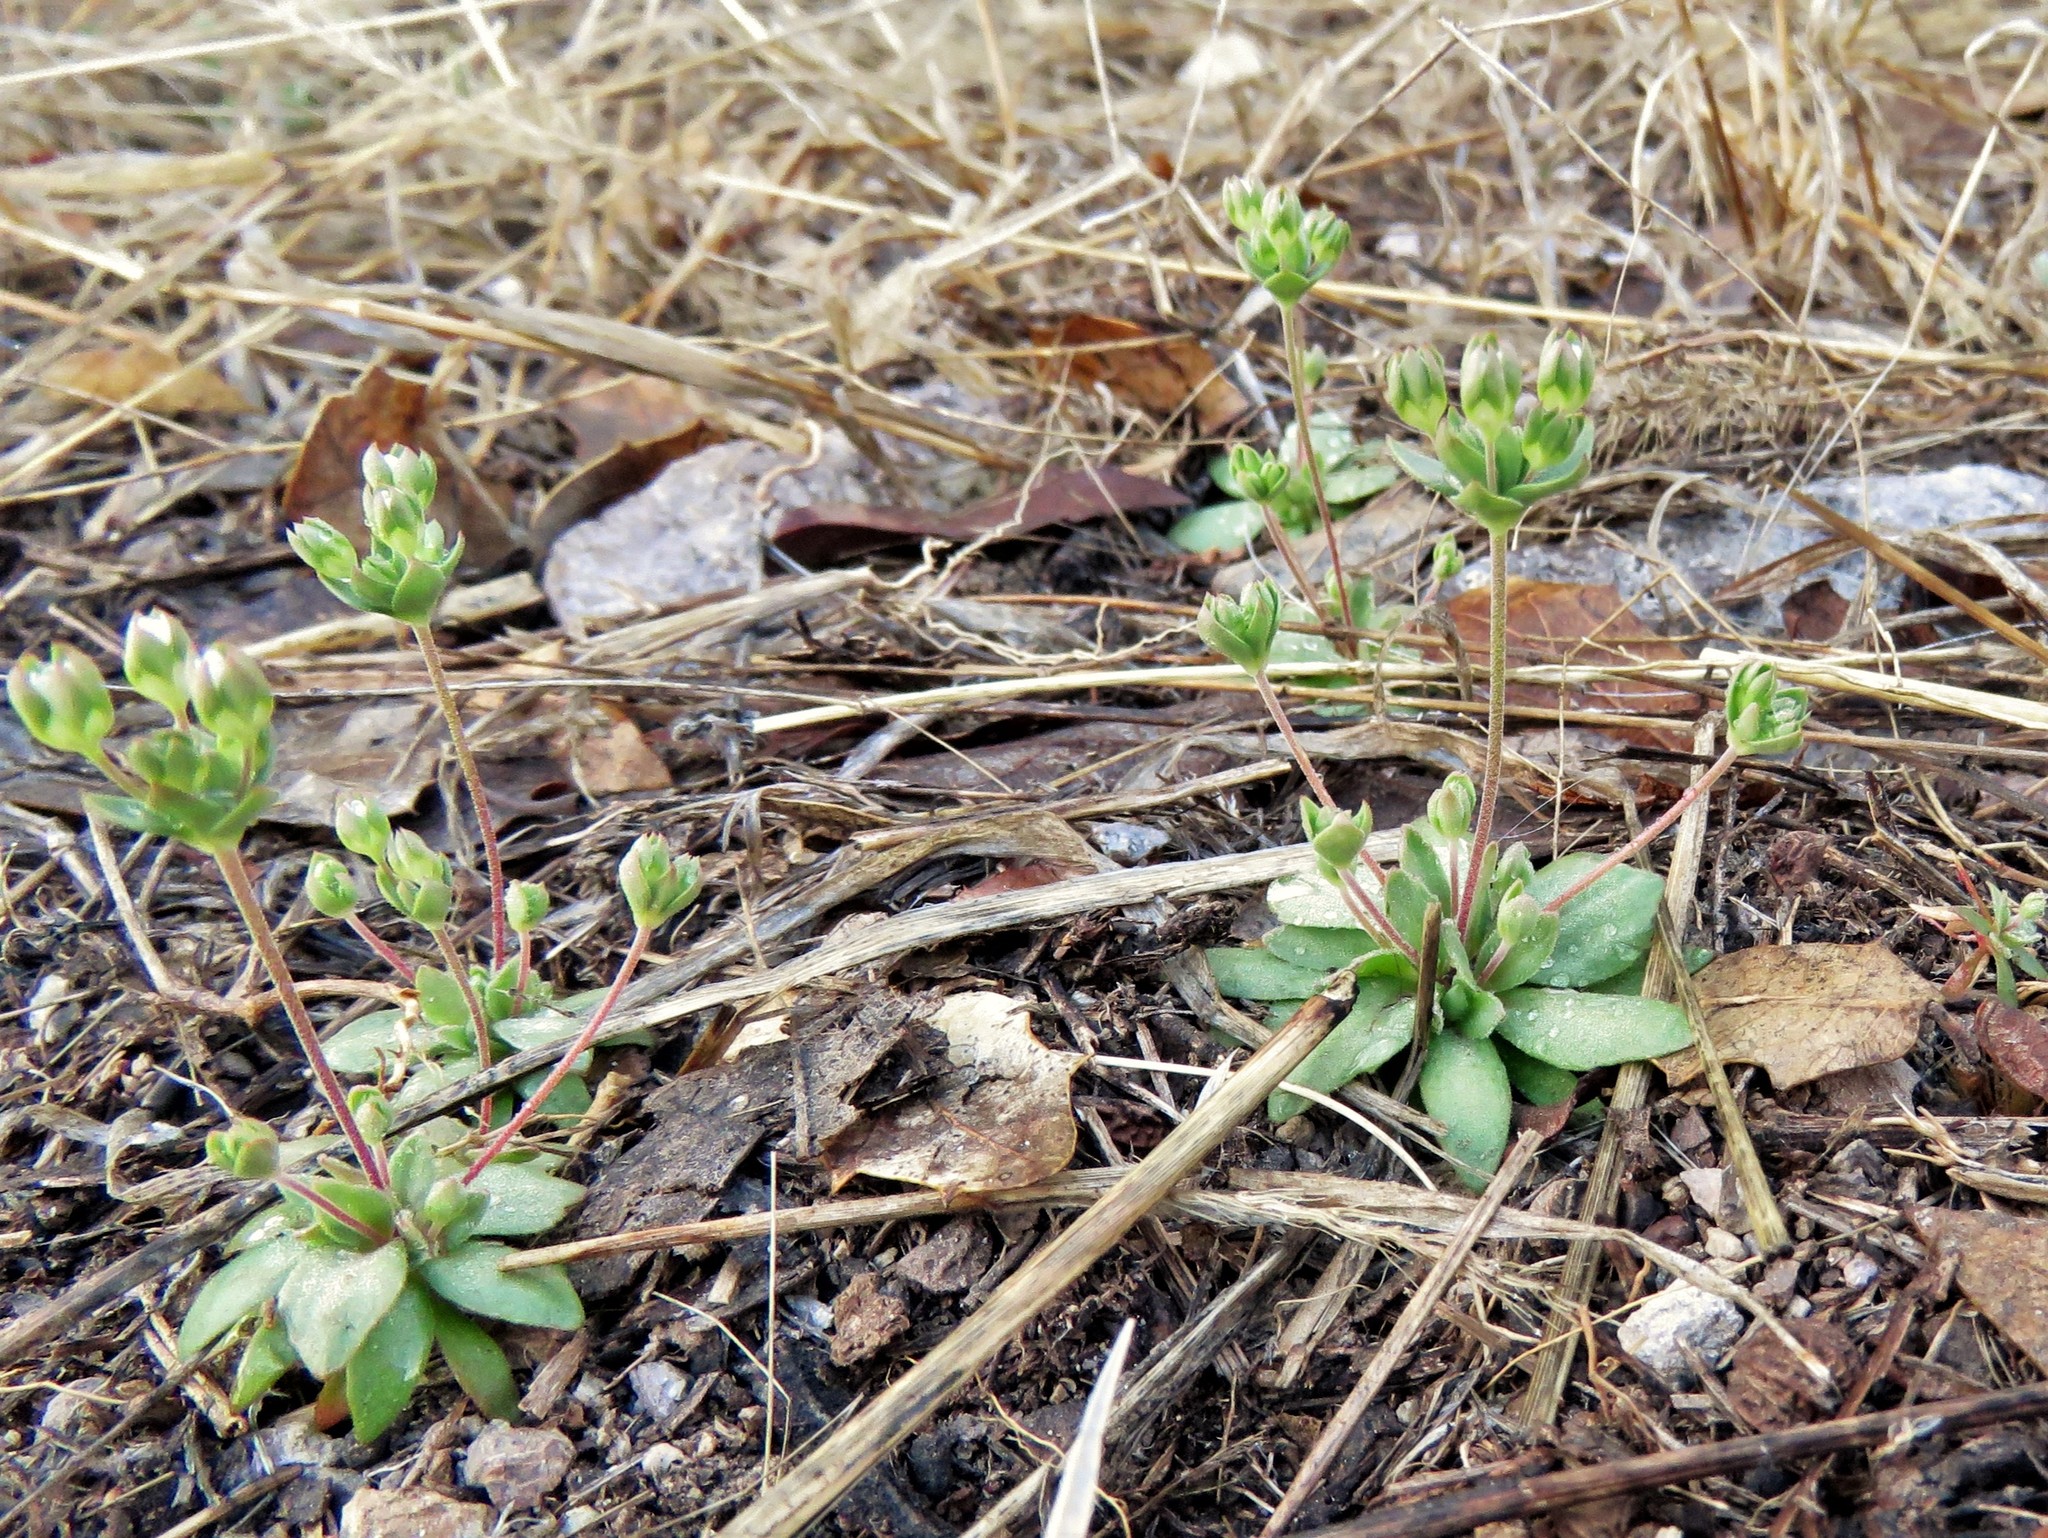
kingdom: Plantae
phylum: Tracheophyta
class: Magnoliopsida
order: Ericales
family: Primulaceae
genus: Androsace
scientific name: Androsace occidentalis
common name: West rock-jasmine
